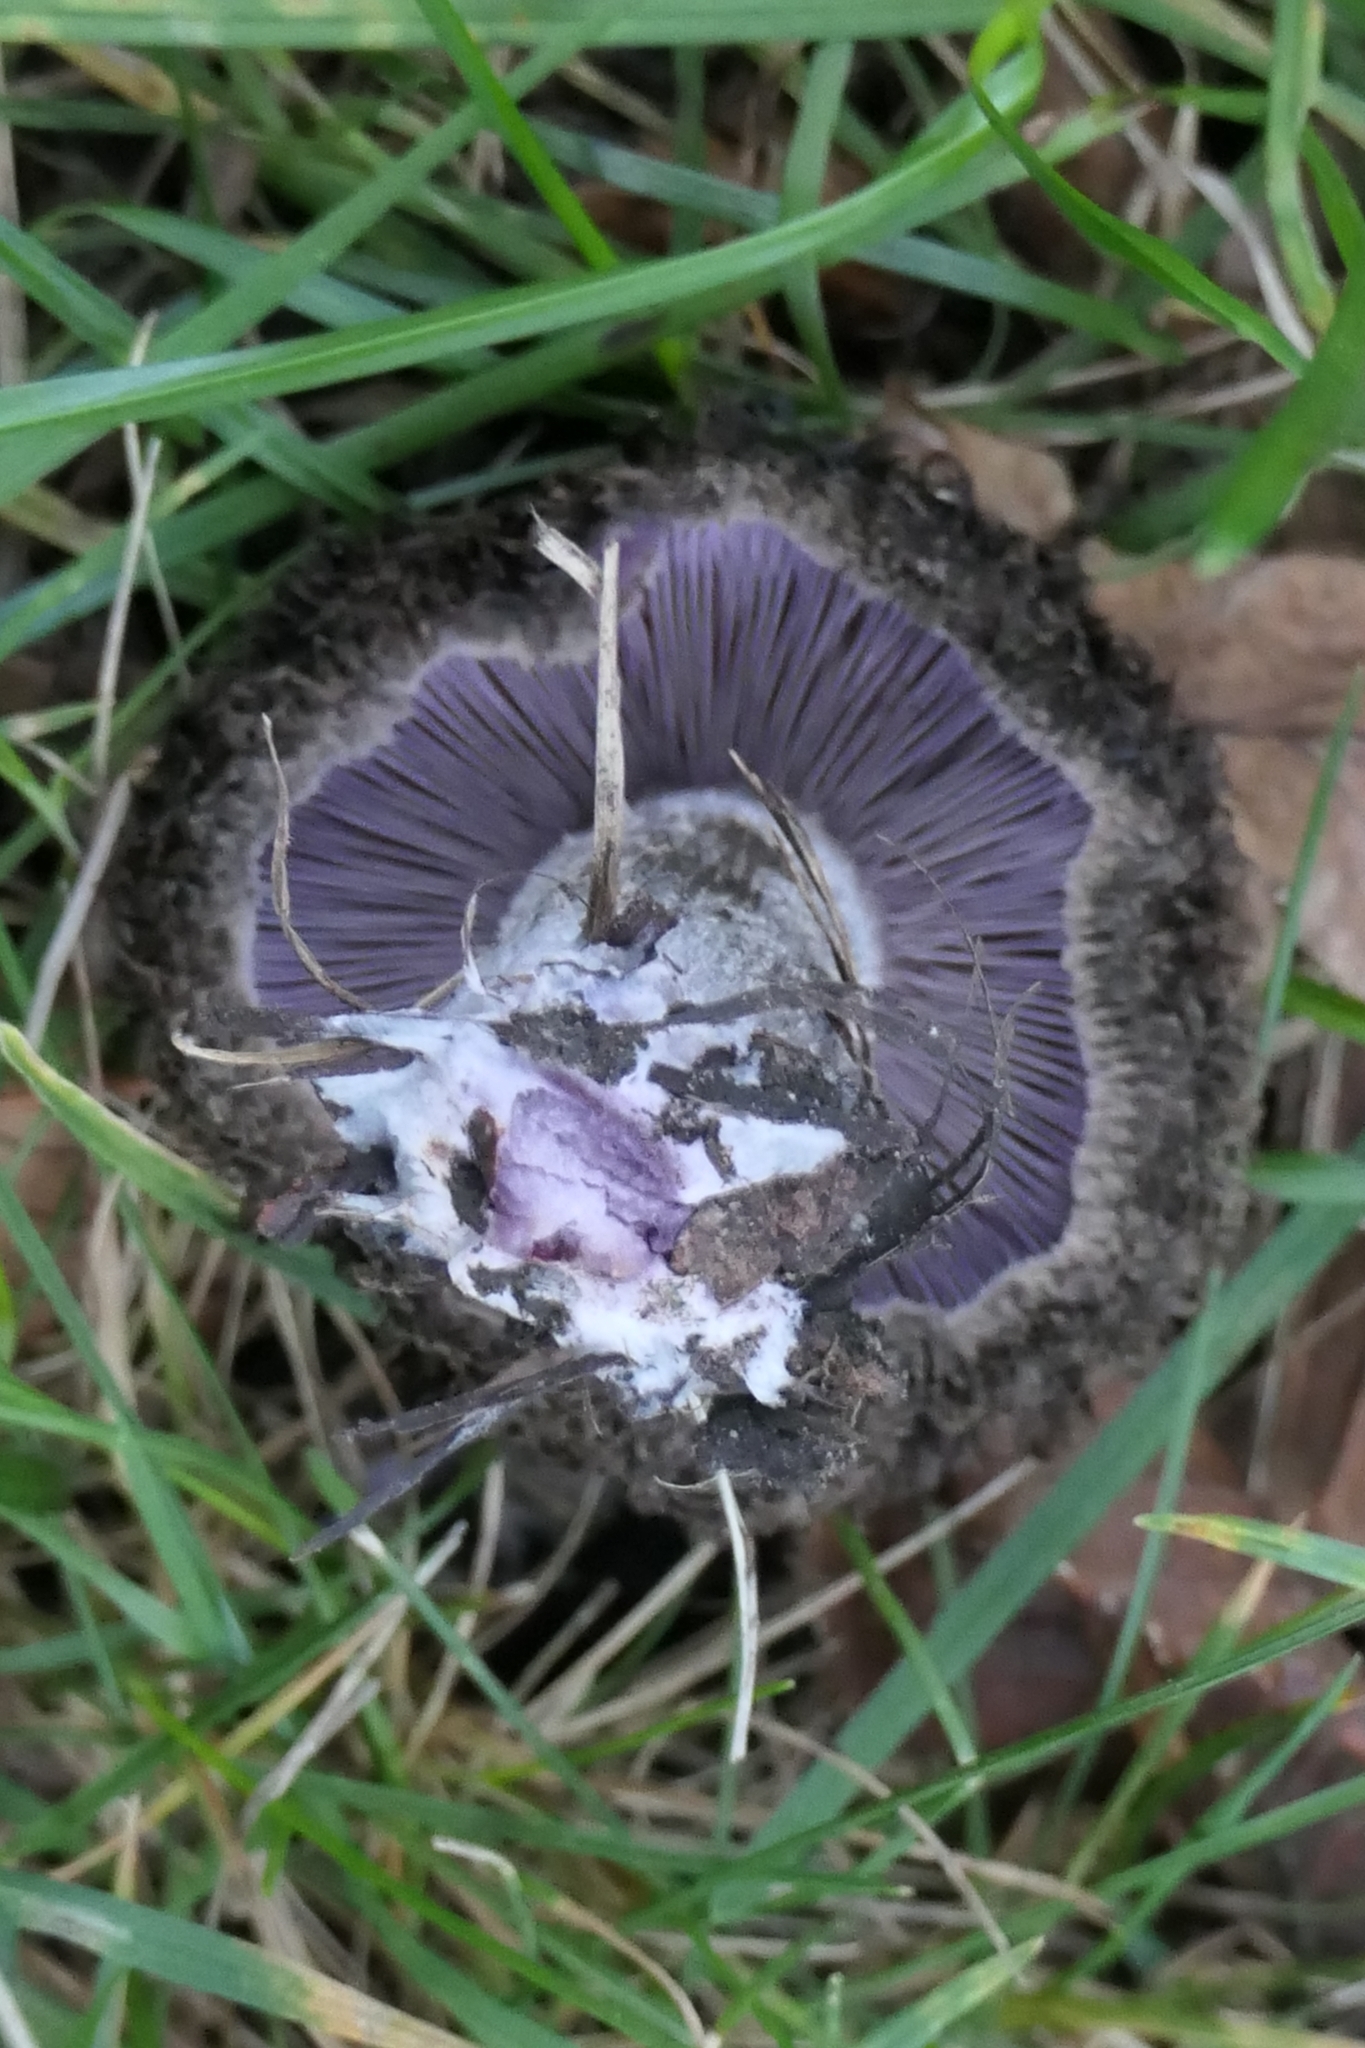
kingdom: Fungi
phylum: Basidiomycota
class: Agaricomycetes
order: Agaricales
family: Tricholomataceae
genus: Collybia
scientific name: Collybia
